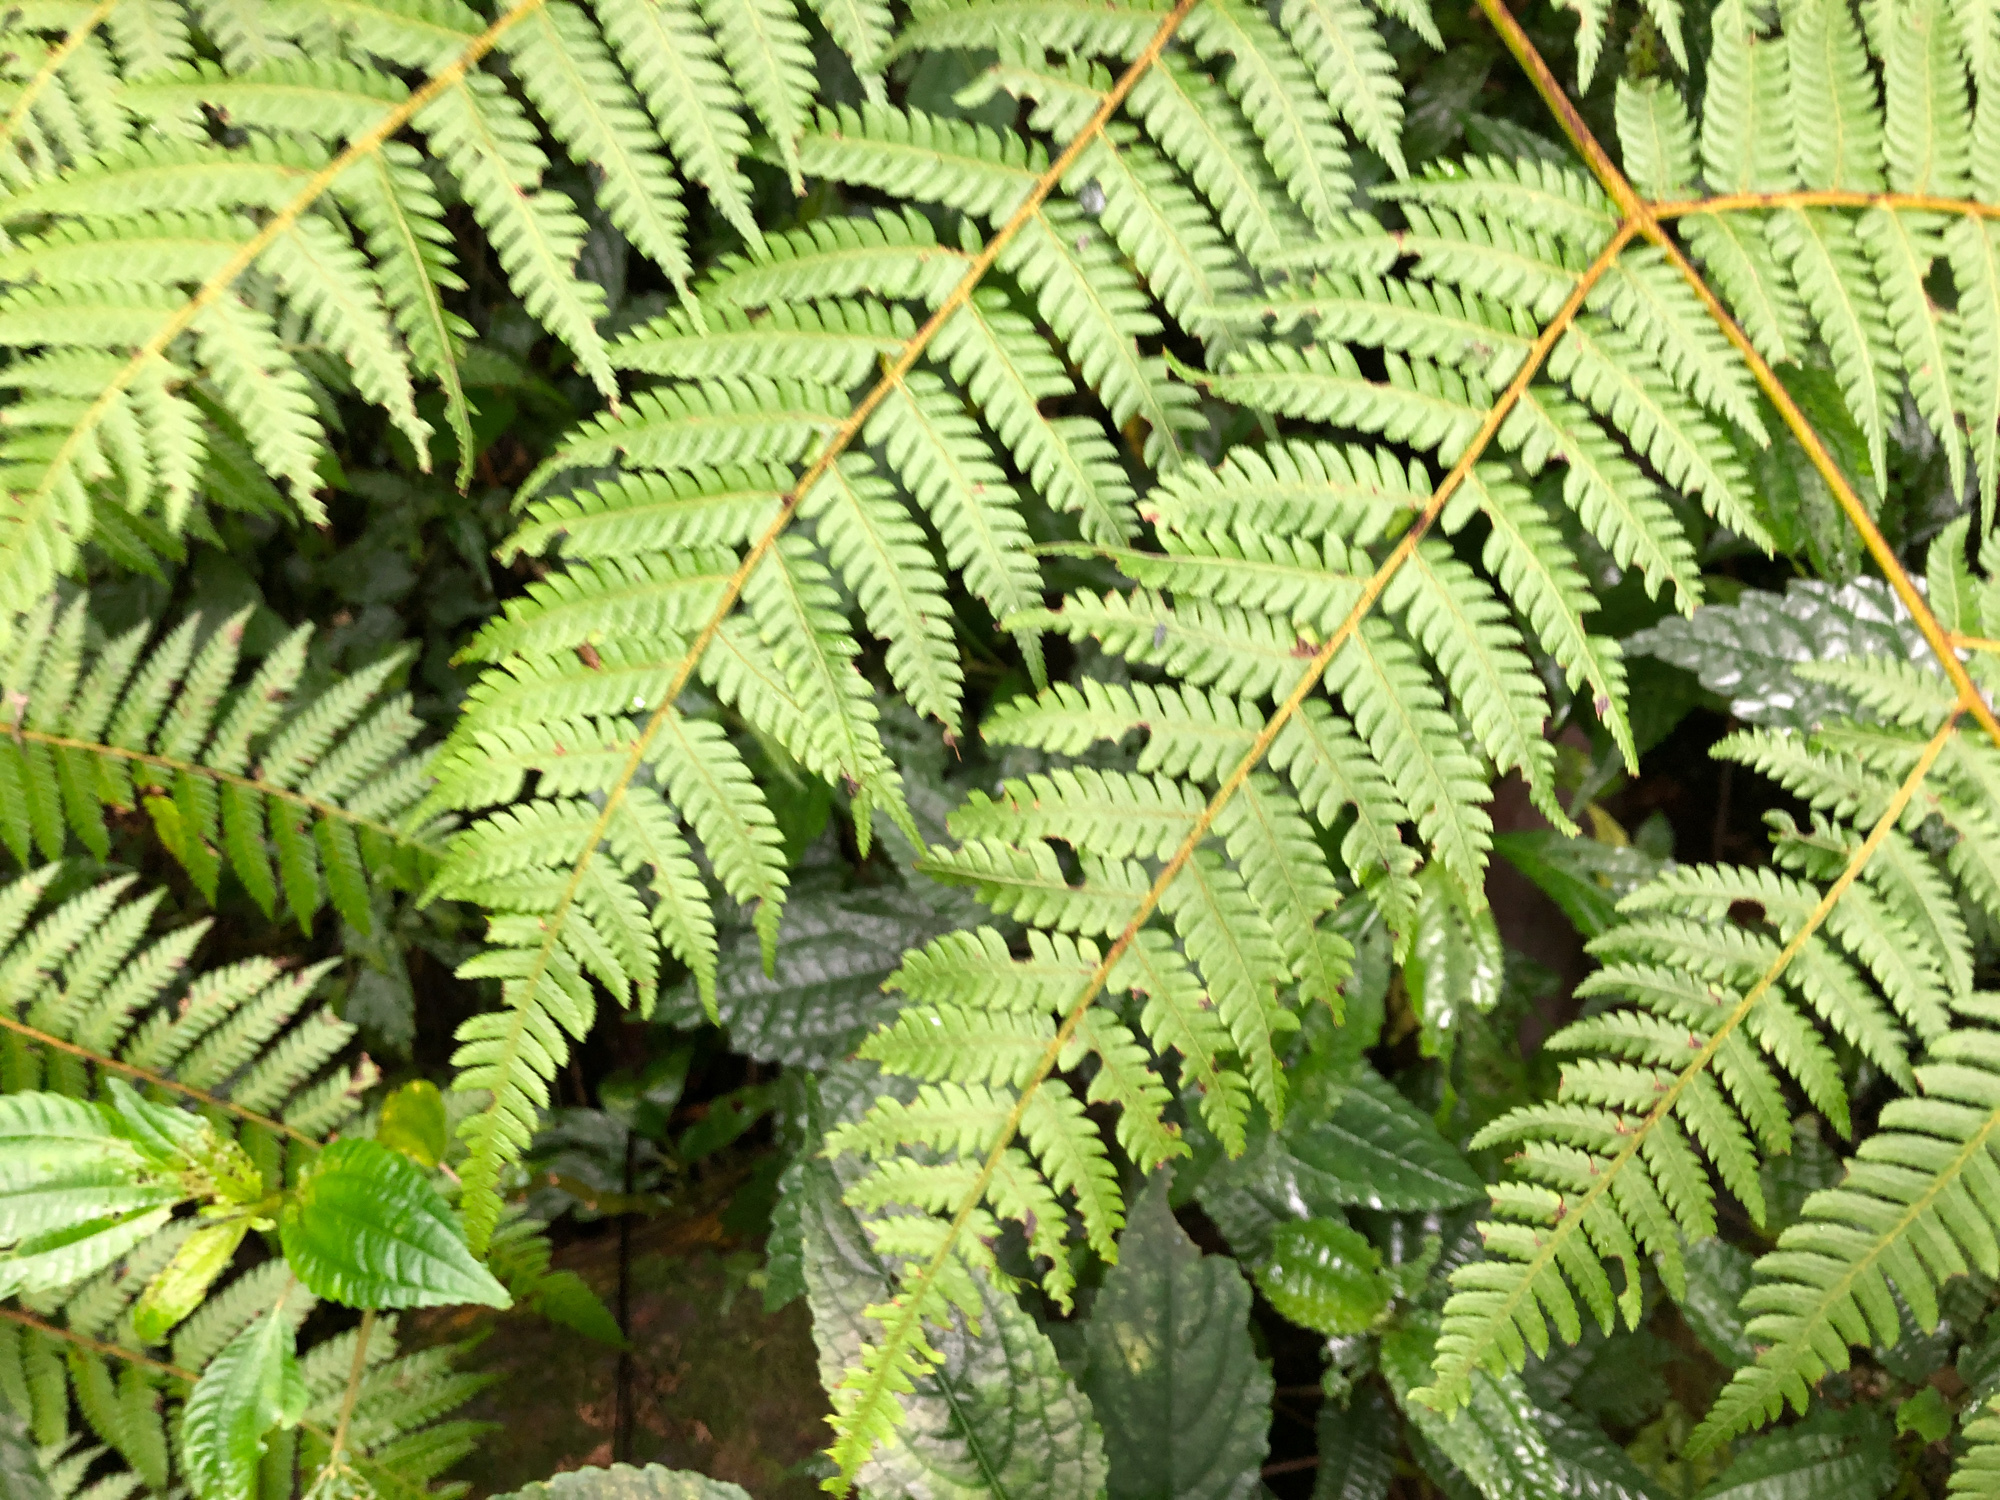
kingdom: Plantae
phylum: Tracheophyta
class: Polypodiopsida
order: Cyatheales
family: Cyatheaceae
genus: Alsophila
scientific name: Alsophila spinulosa
